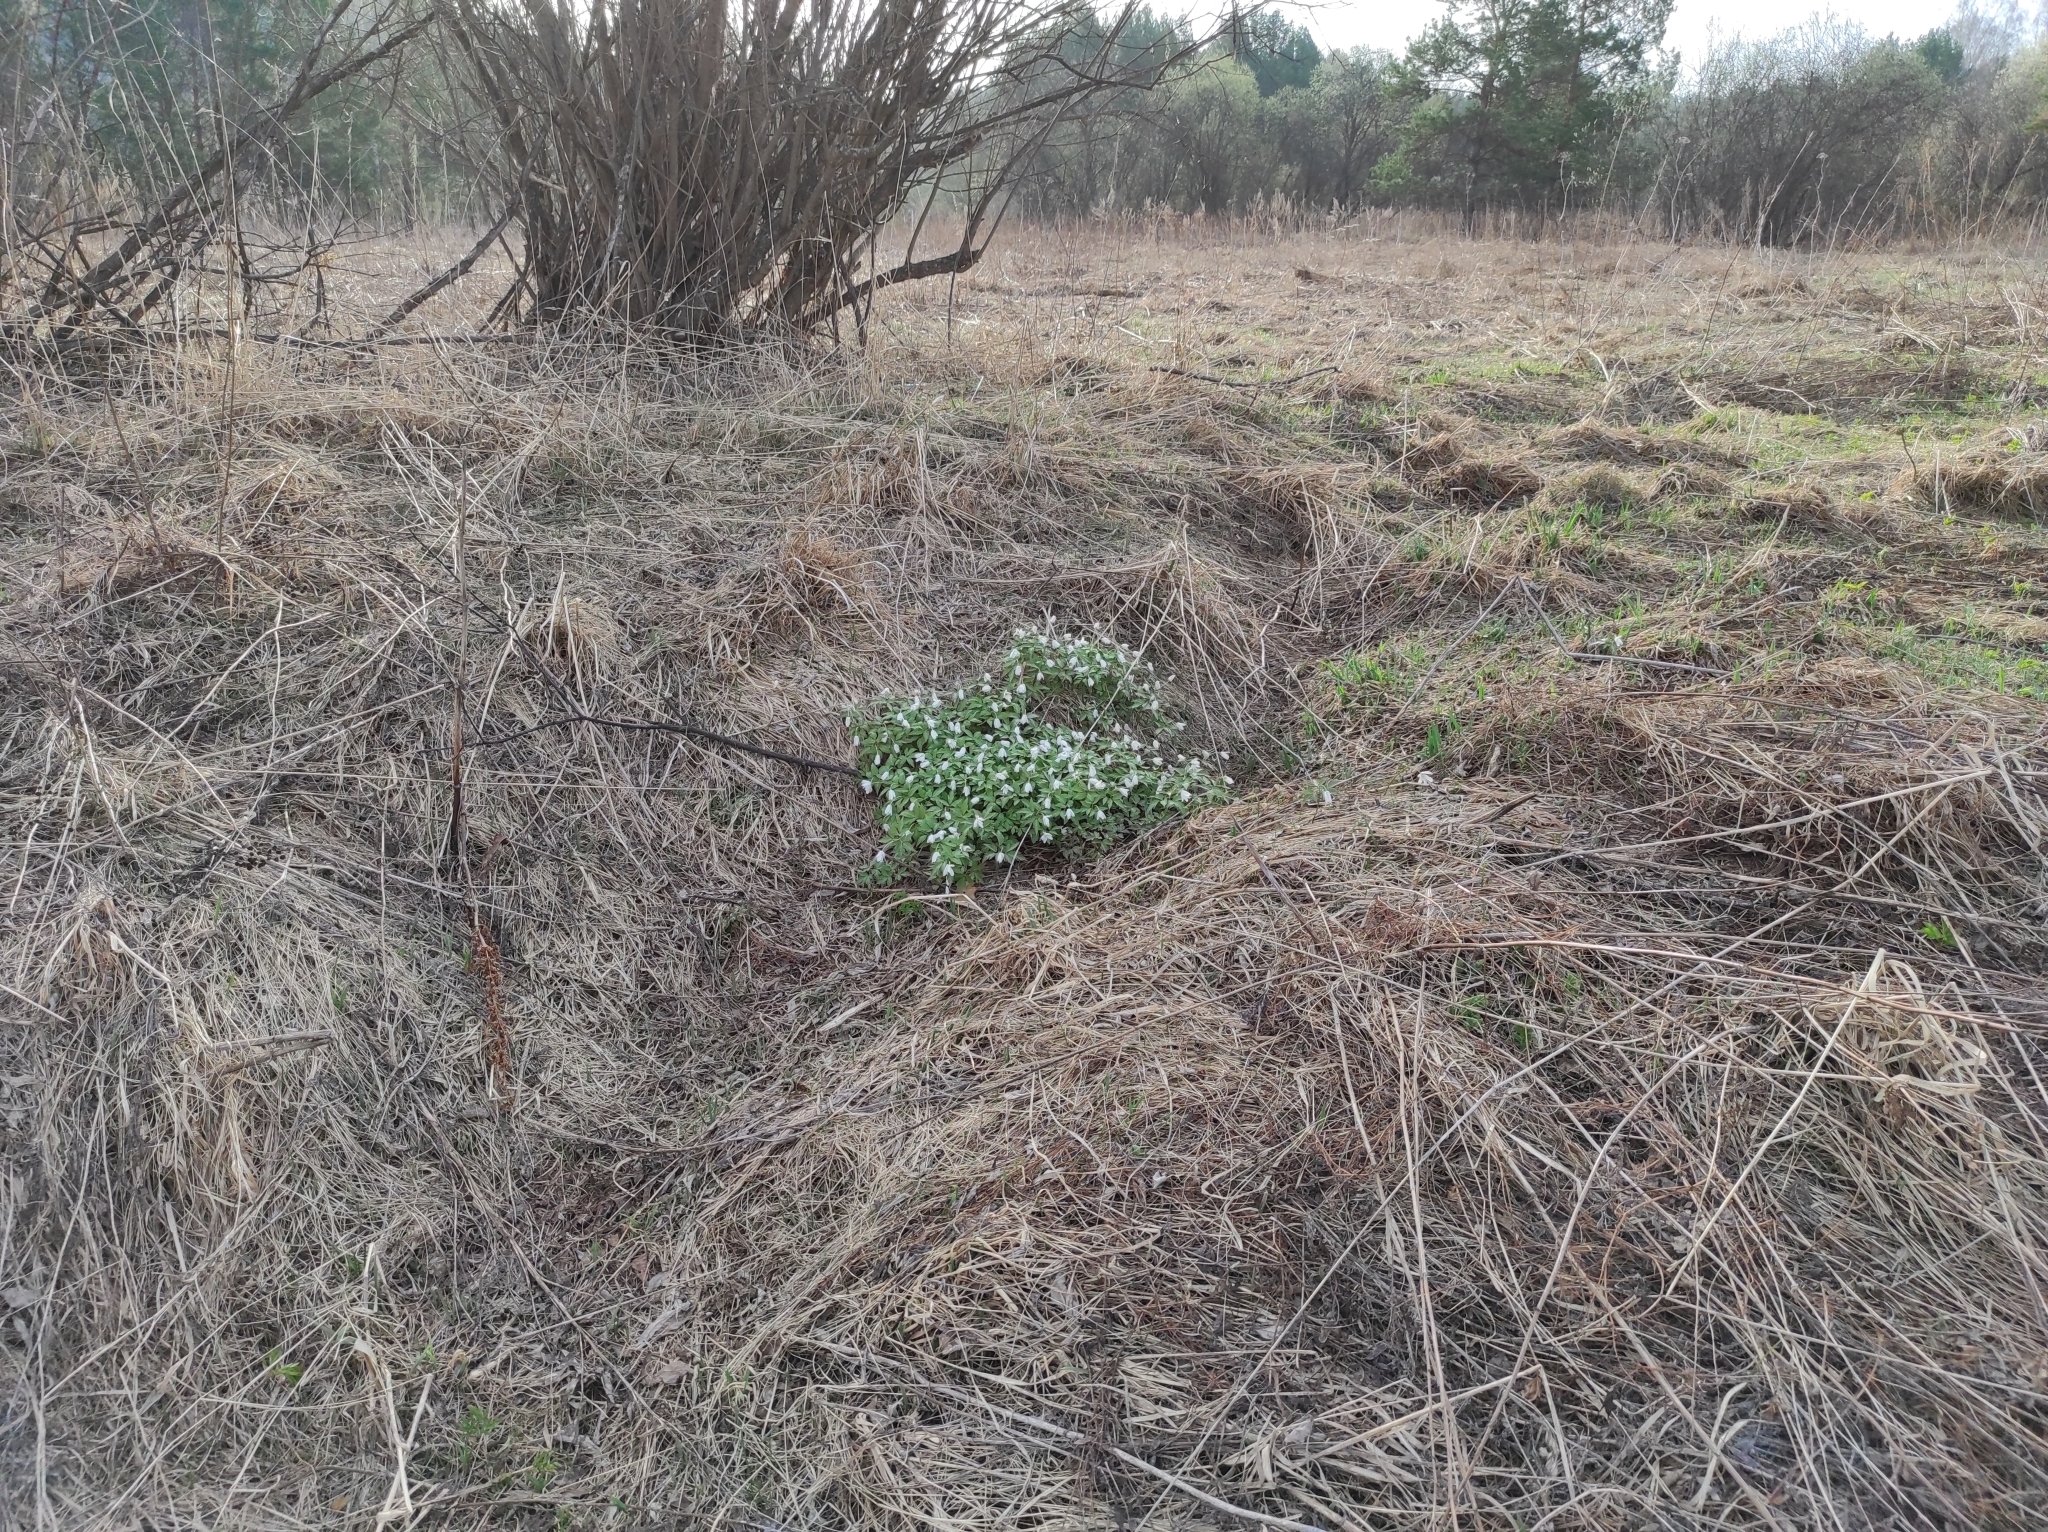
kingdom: Plantae
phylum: Tracheophyta
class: Magnoliopsida
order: Ranunculales
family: Ranunculaceae
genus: Anemone
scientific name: Anemone altaica
